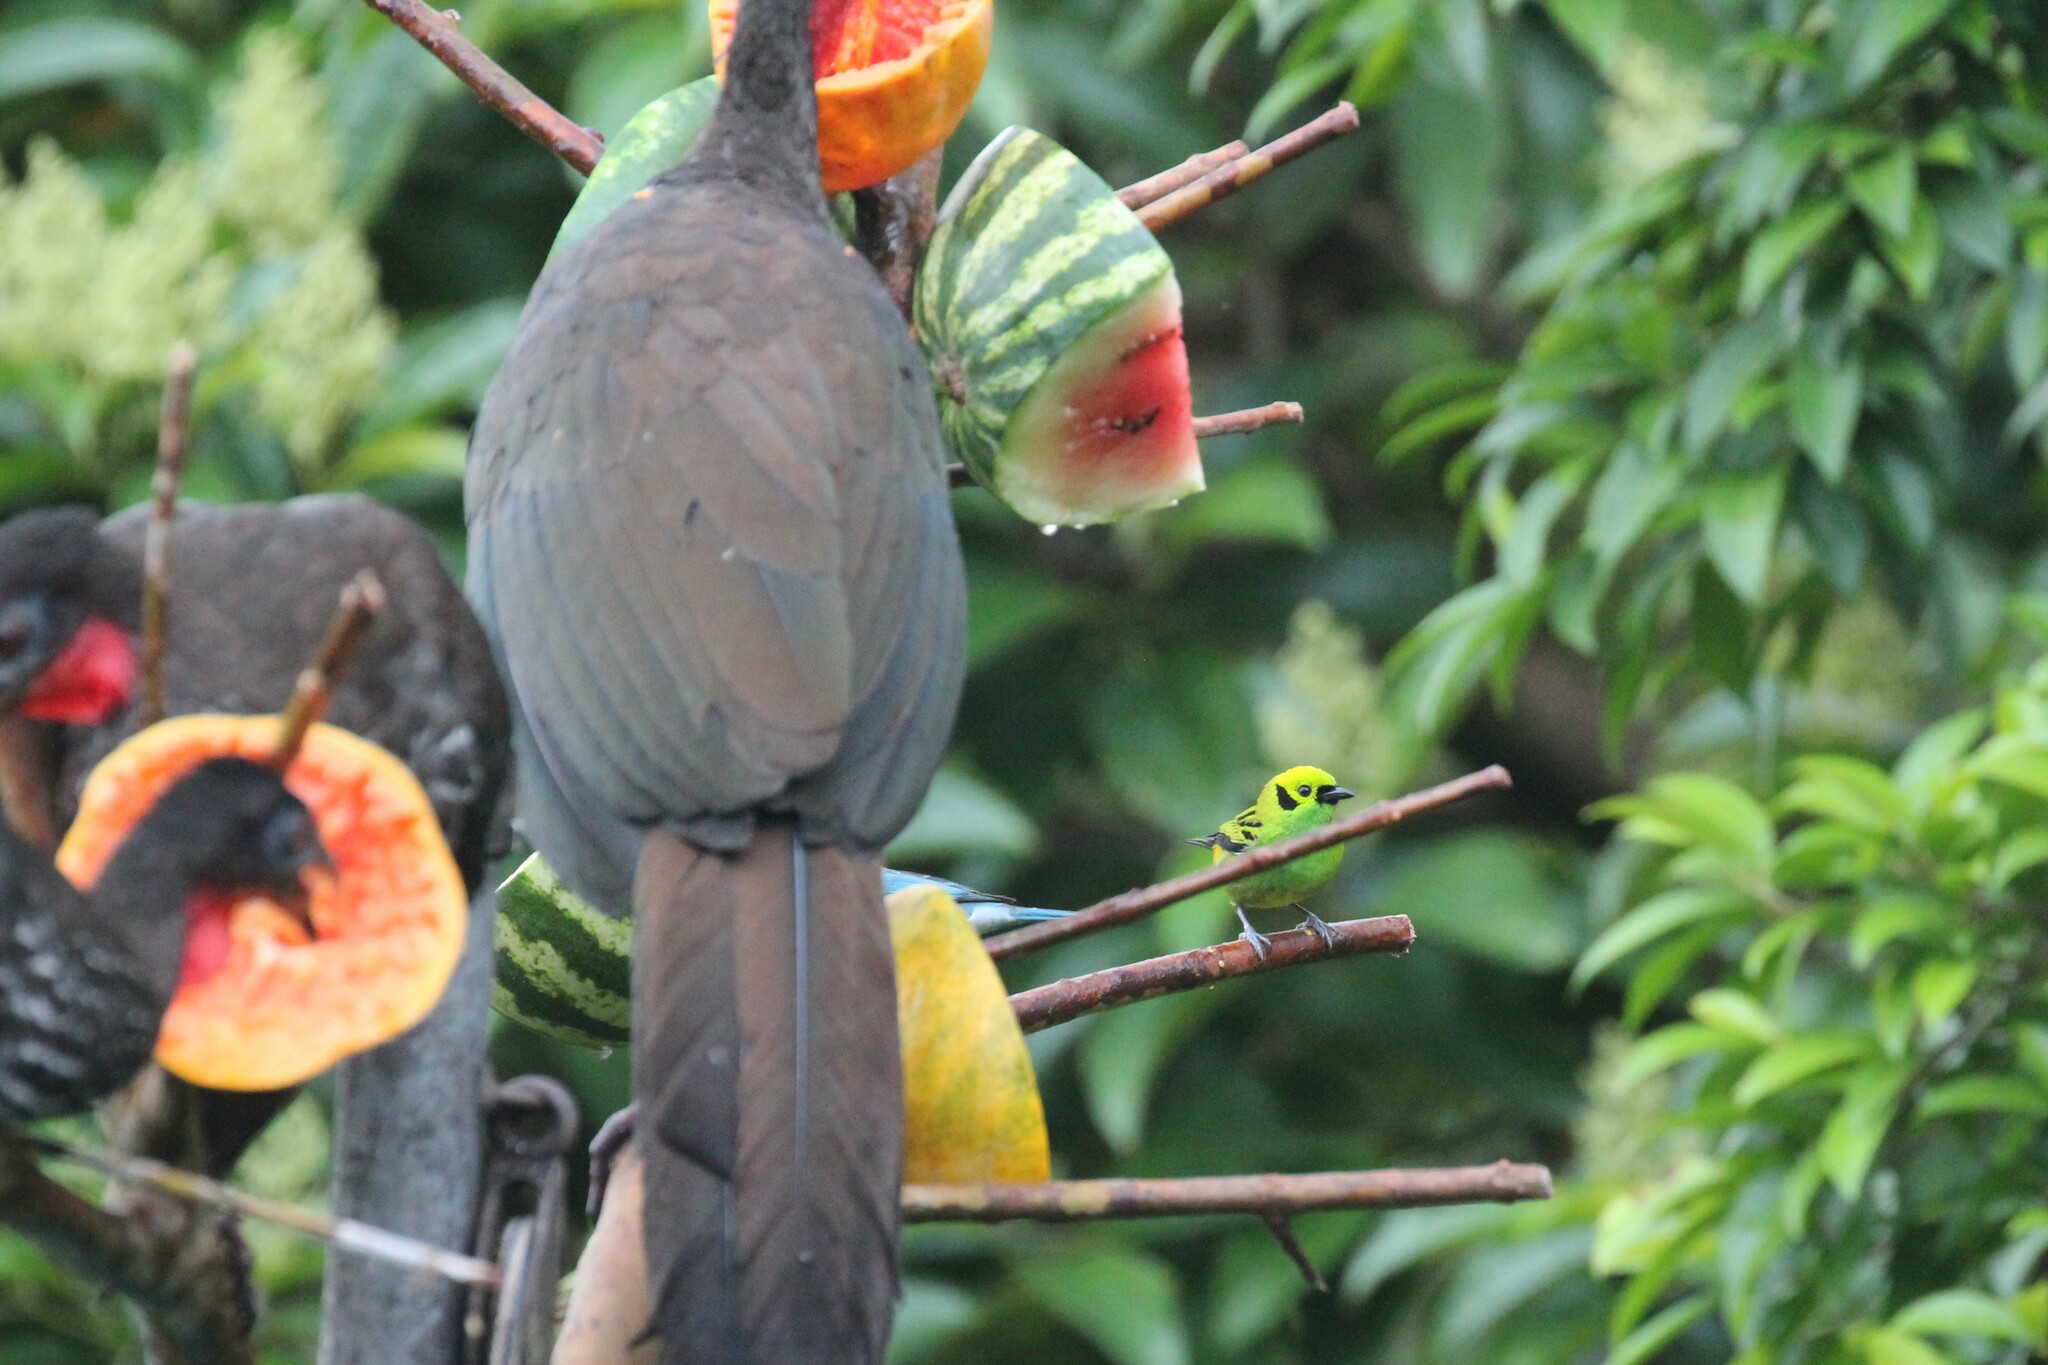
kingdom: Animalia
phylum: Chordata
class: Aves
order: Passeriformes
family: Thraupidae
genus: Tangara
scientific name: Tangara florida
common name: Emerald tanager
